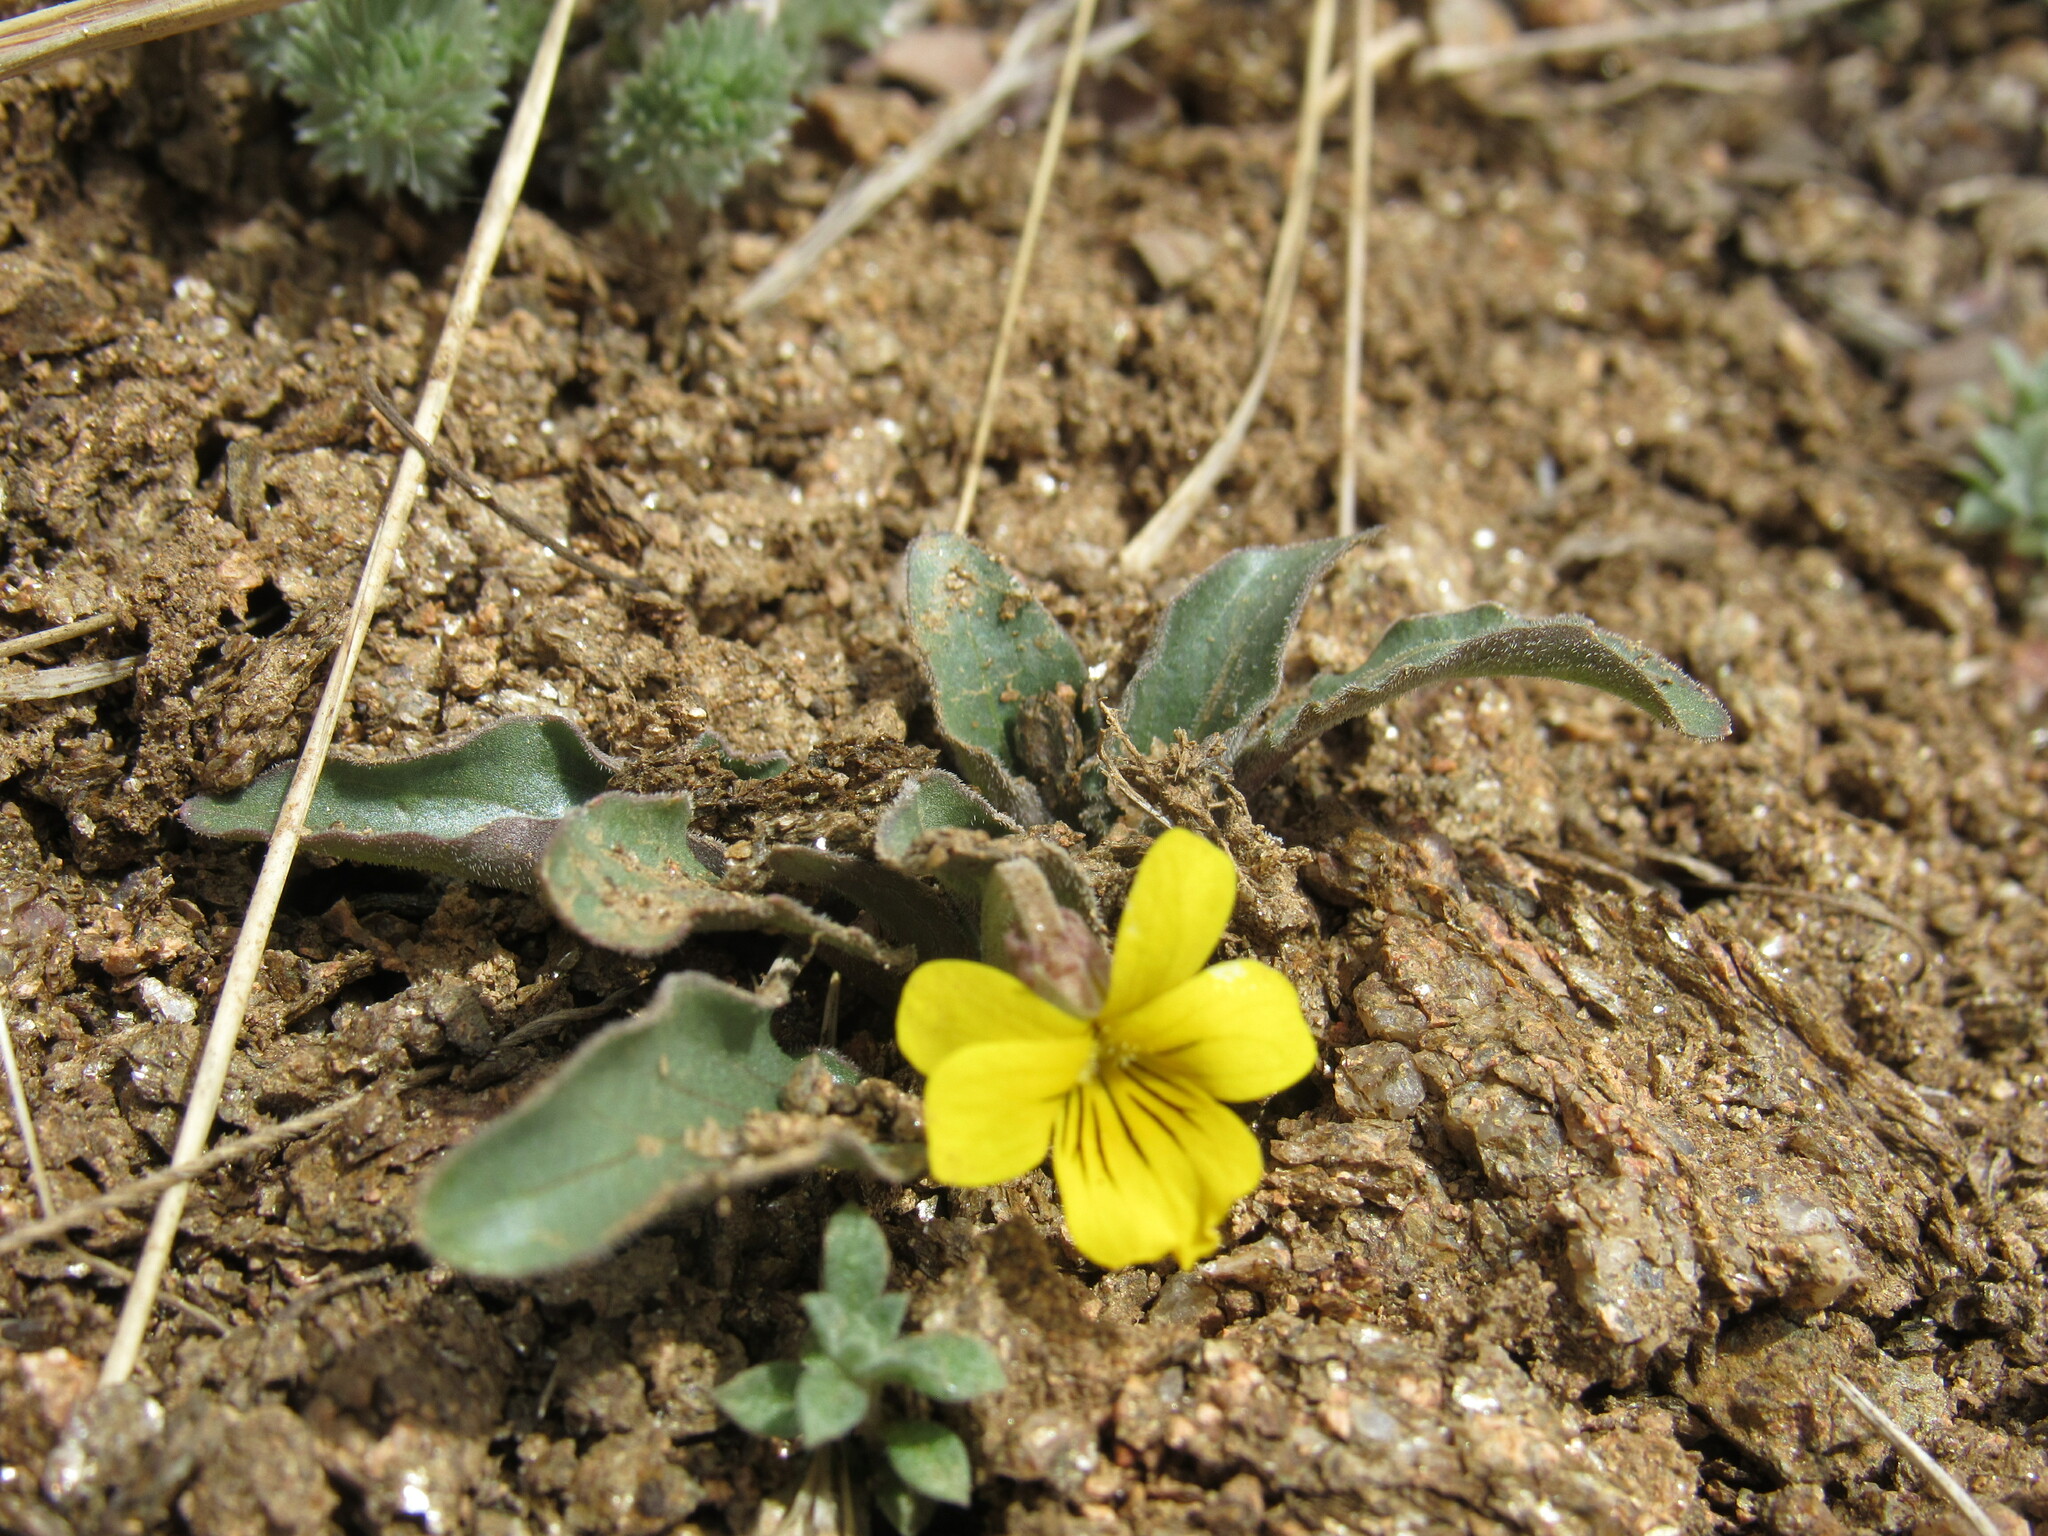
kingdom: Plantae
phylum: Tracheophyta
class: Magnoliopsida
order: Malpighiales
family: Violaceae
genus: Viola
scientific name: Viola nuttallii
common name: Yellow prairie violet
